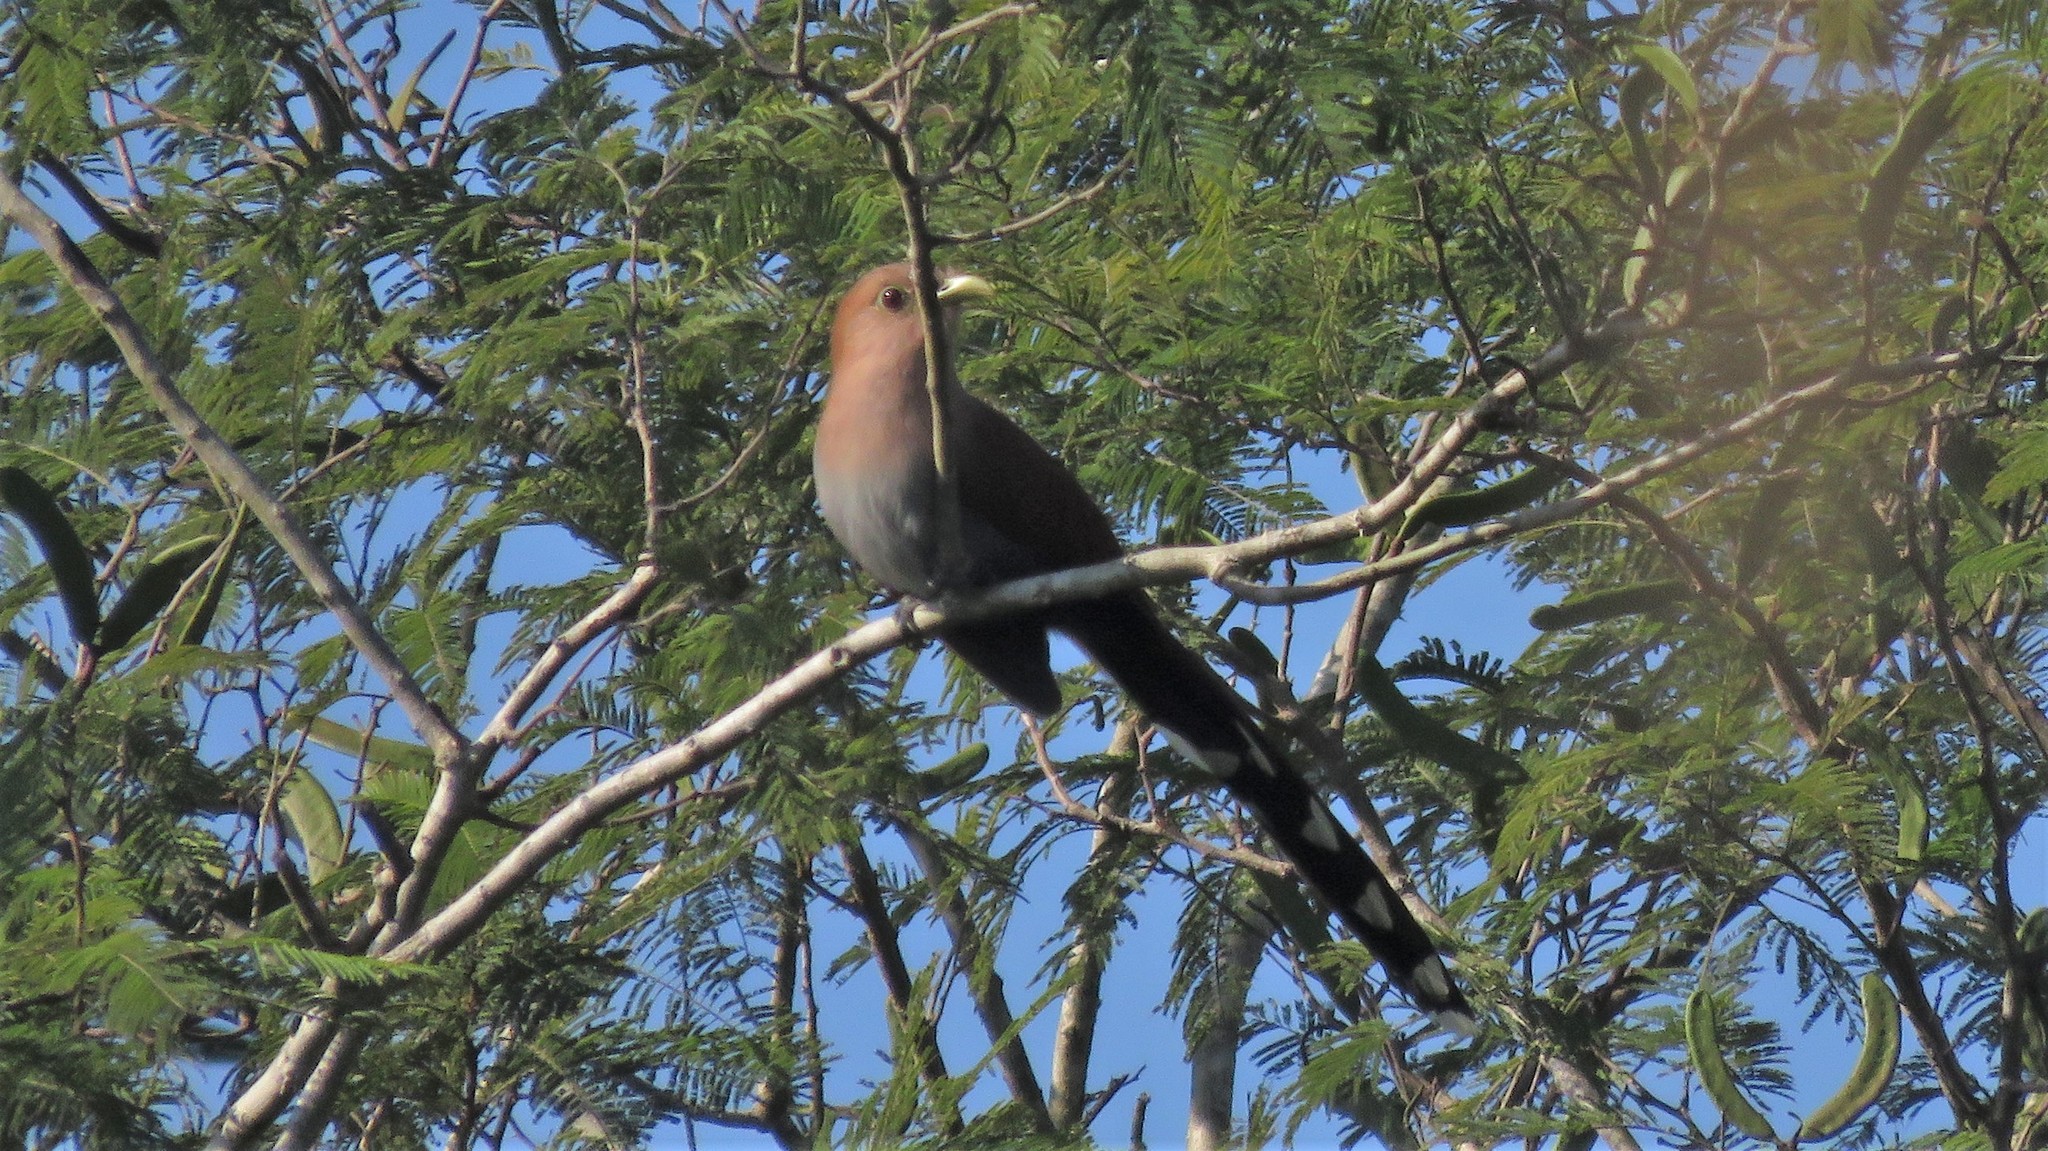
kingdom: Animalia
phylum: Chordata
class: Aves
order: Cuculiformes
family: Cuculidae
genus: Piaya
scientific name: Piaya cayana
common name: Squirrel cuckoo
